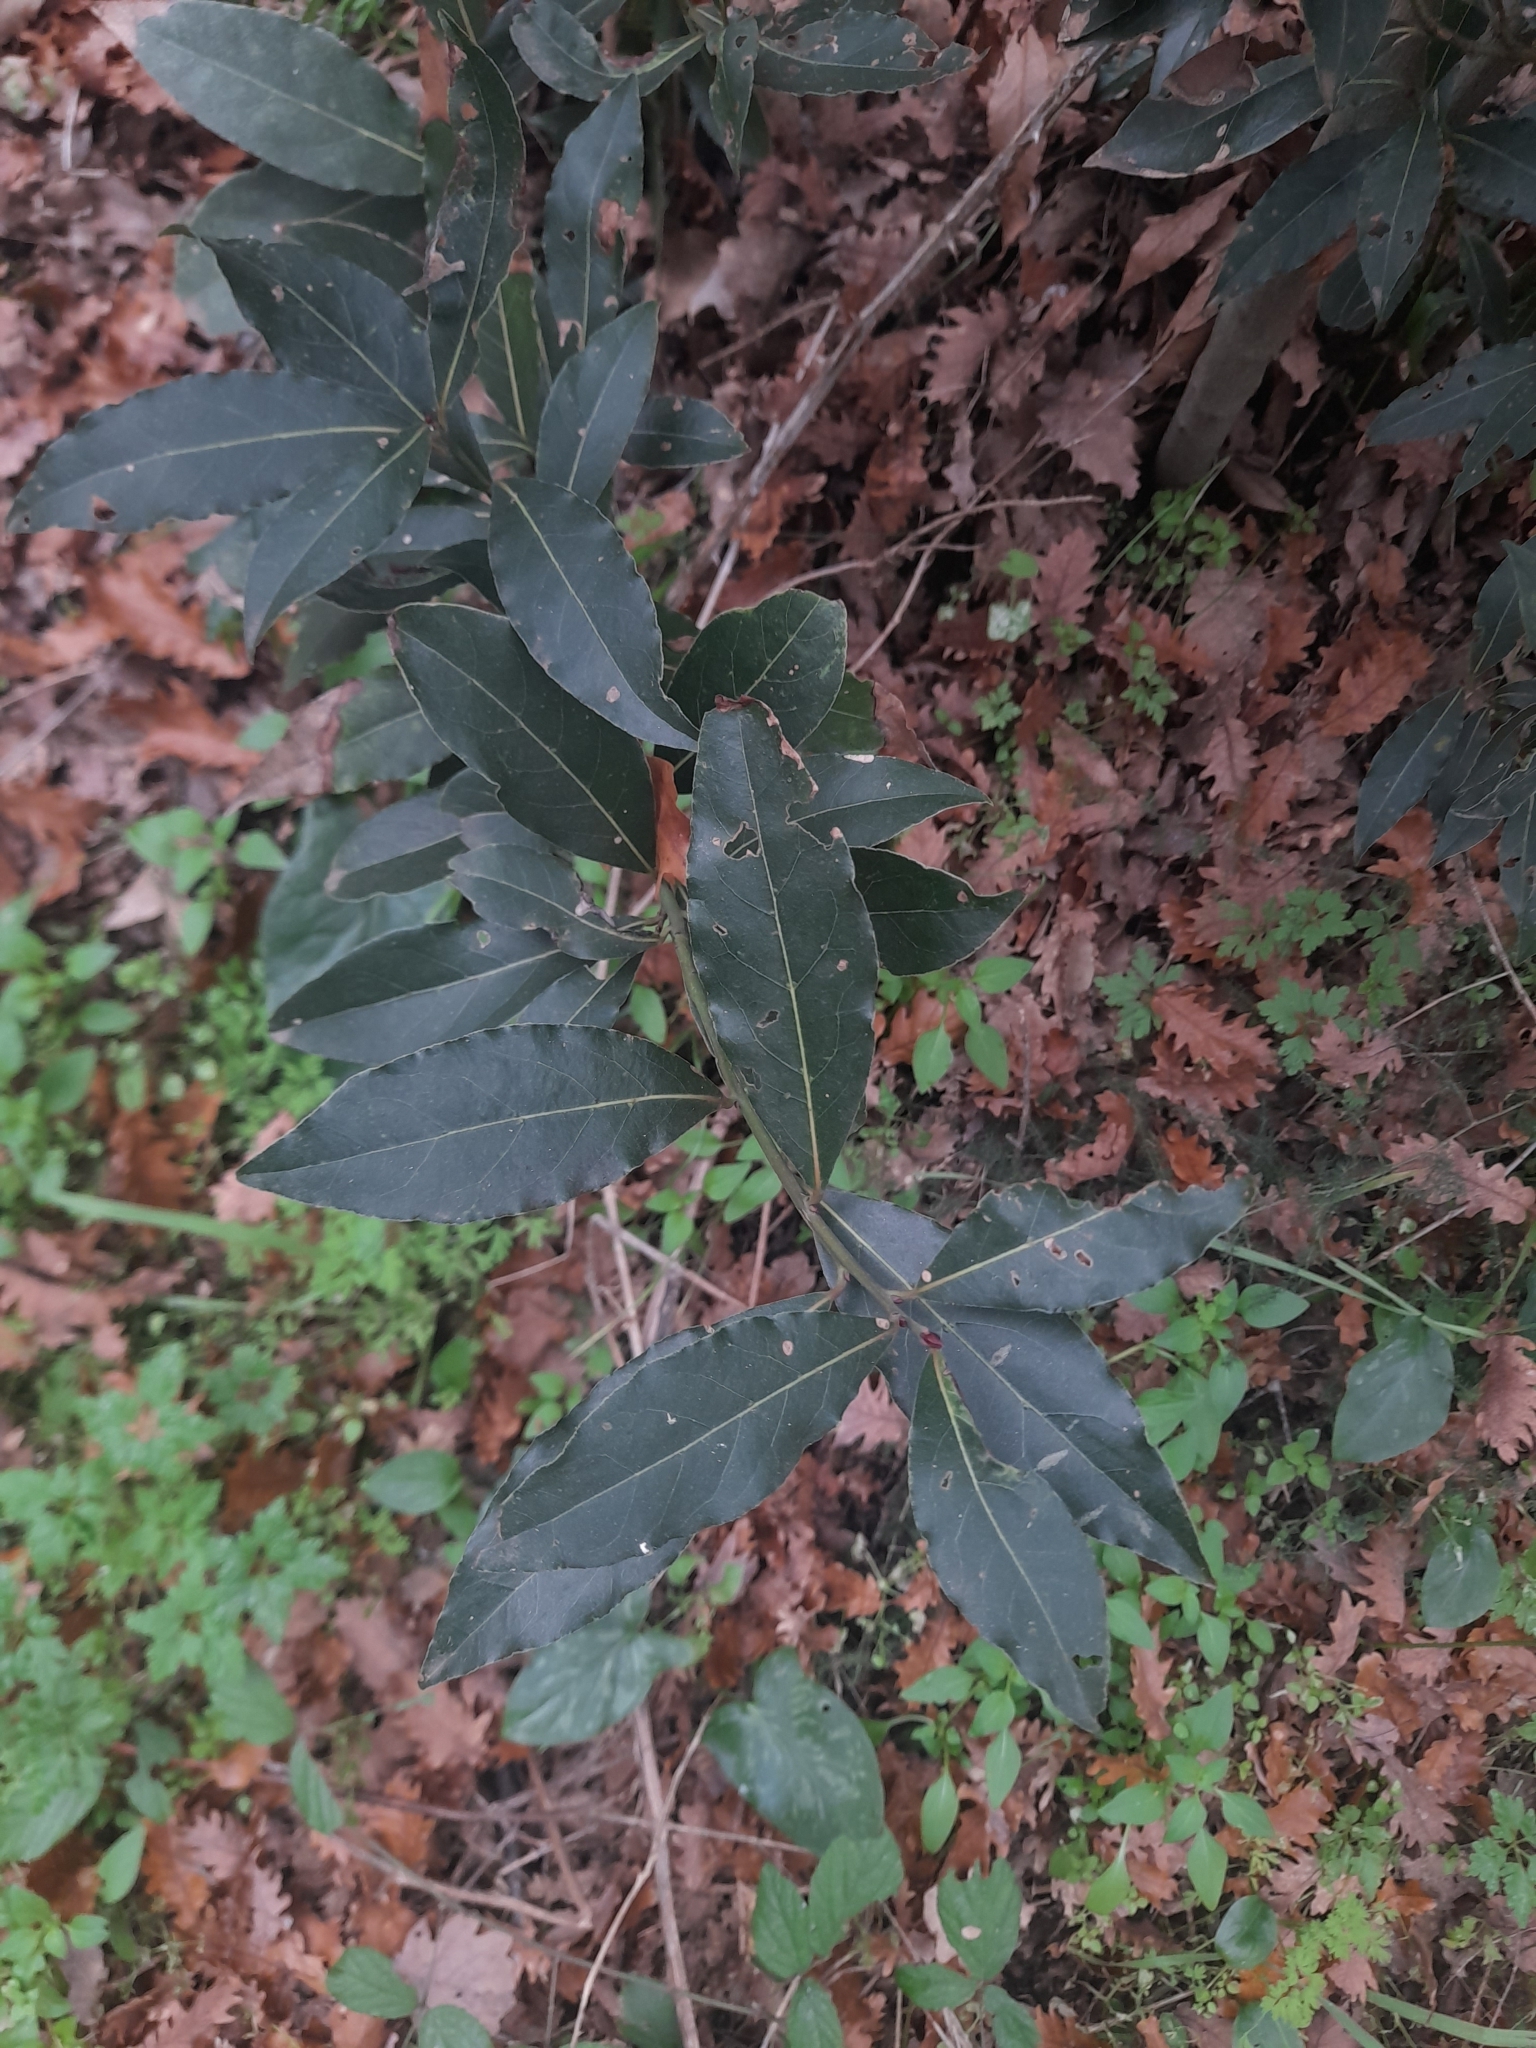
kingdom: Plantae
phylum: Tracheophyta
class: Magnoliopsida
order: Laurales
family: Lauraceae
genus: Laurus
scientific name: Laurus nobilis
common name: Bay
